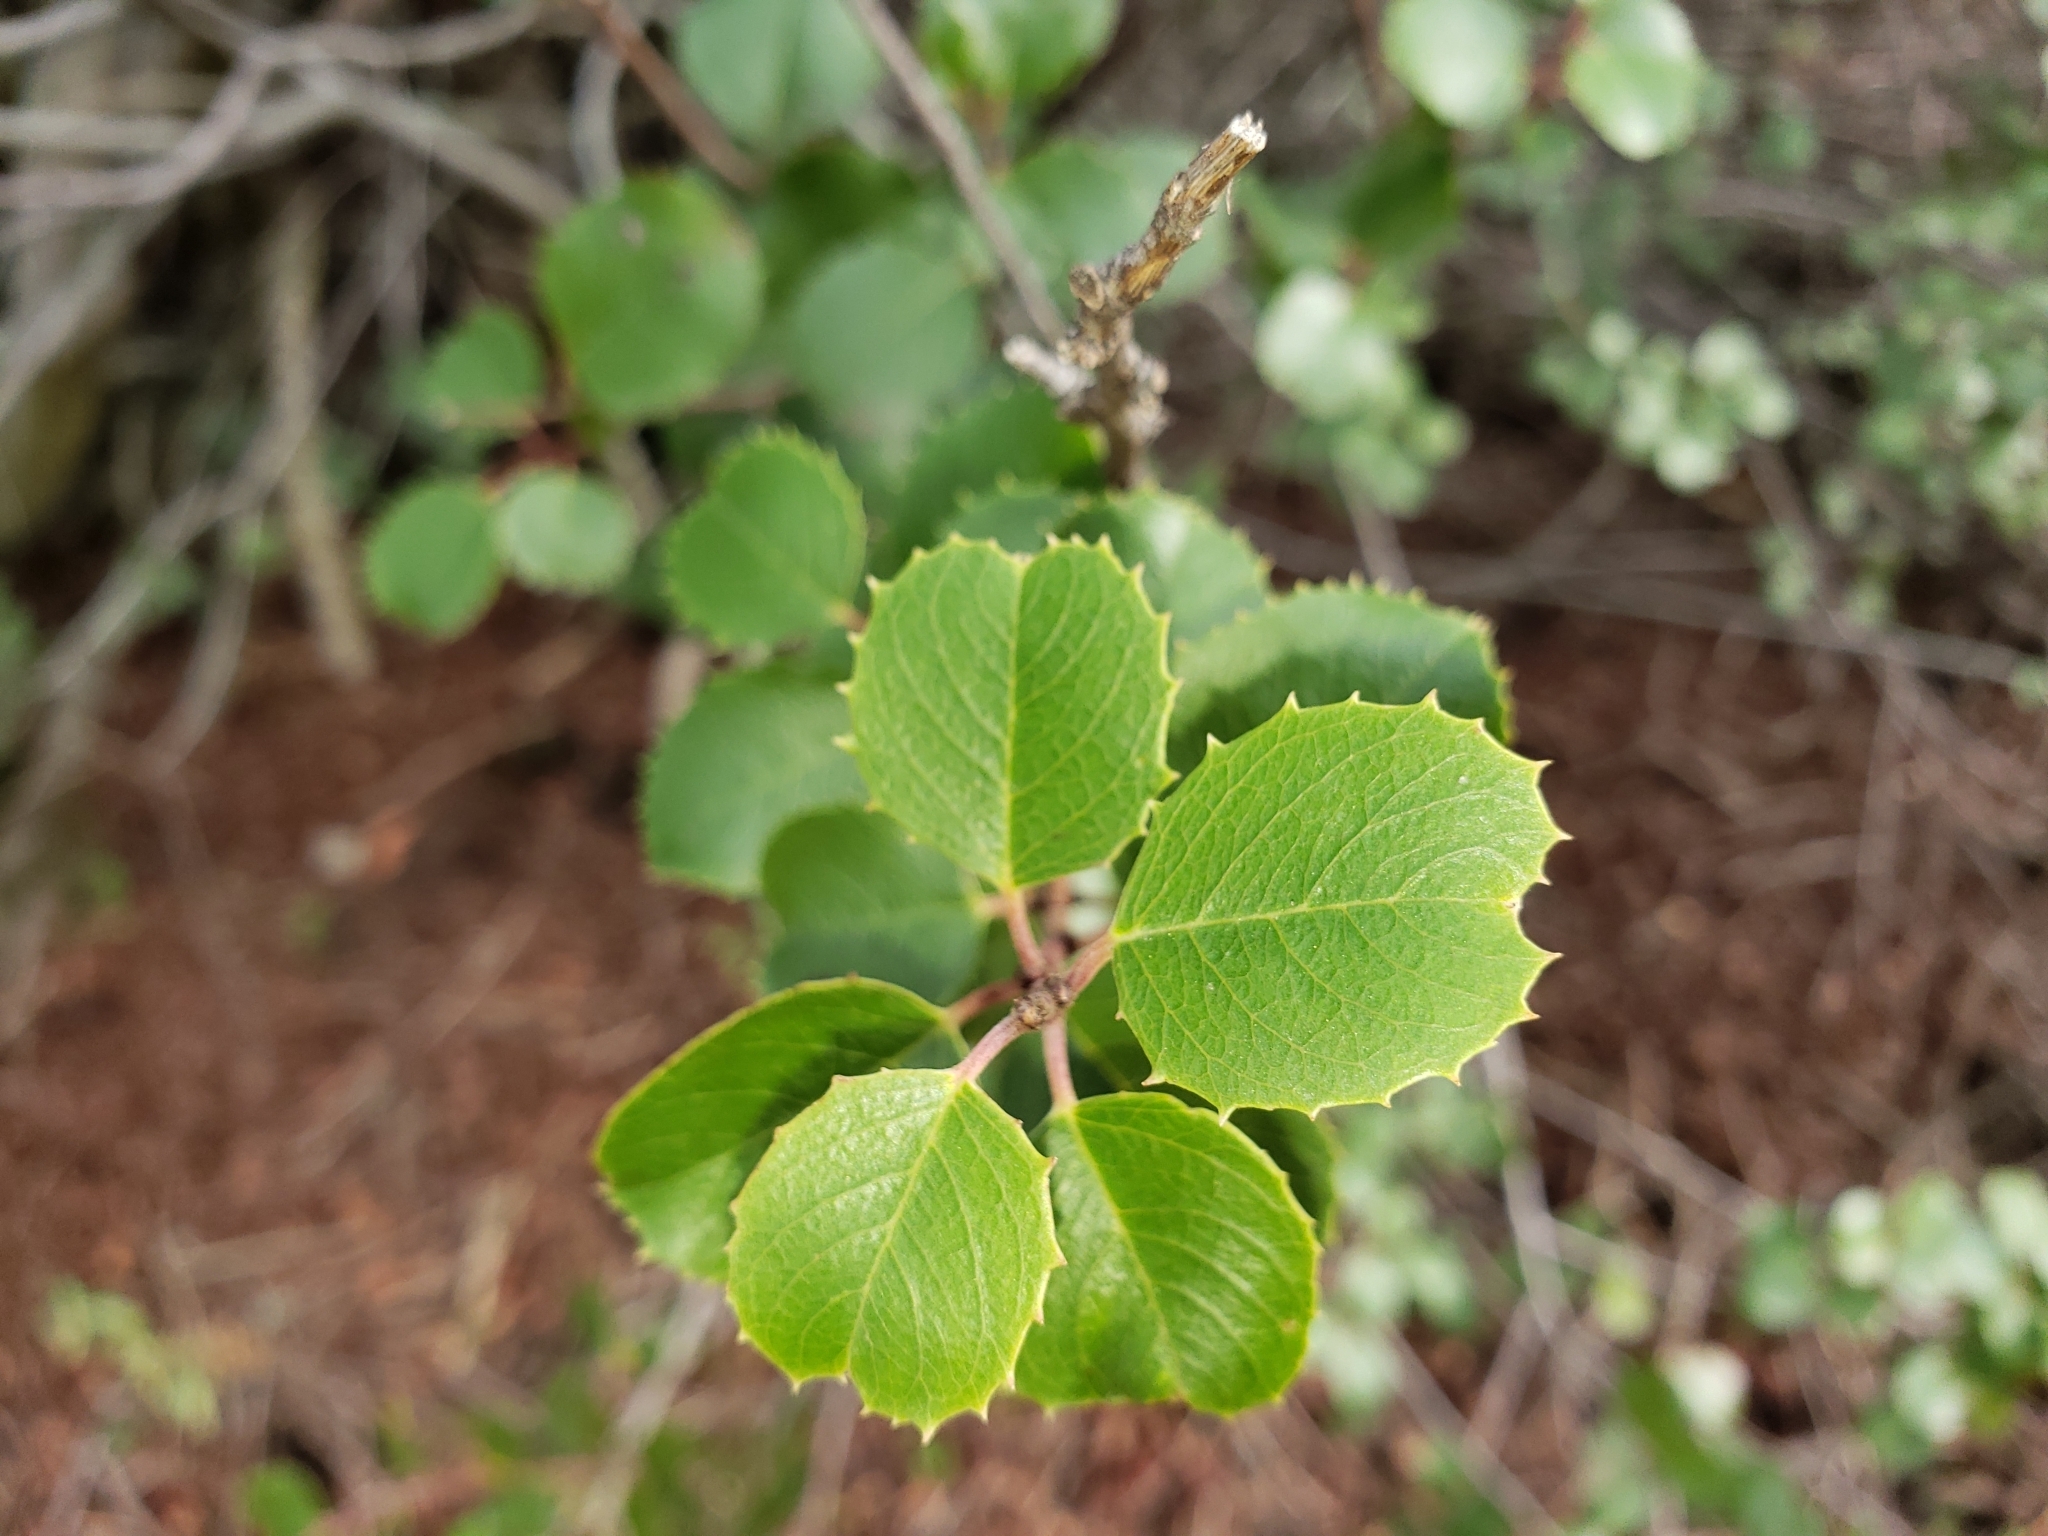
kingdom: Plantae
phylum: Tracheophyta
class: Magnoliopsida
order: Rosales
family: Rhamnaceae
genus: Endotropis
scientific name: Endotropis crocea
